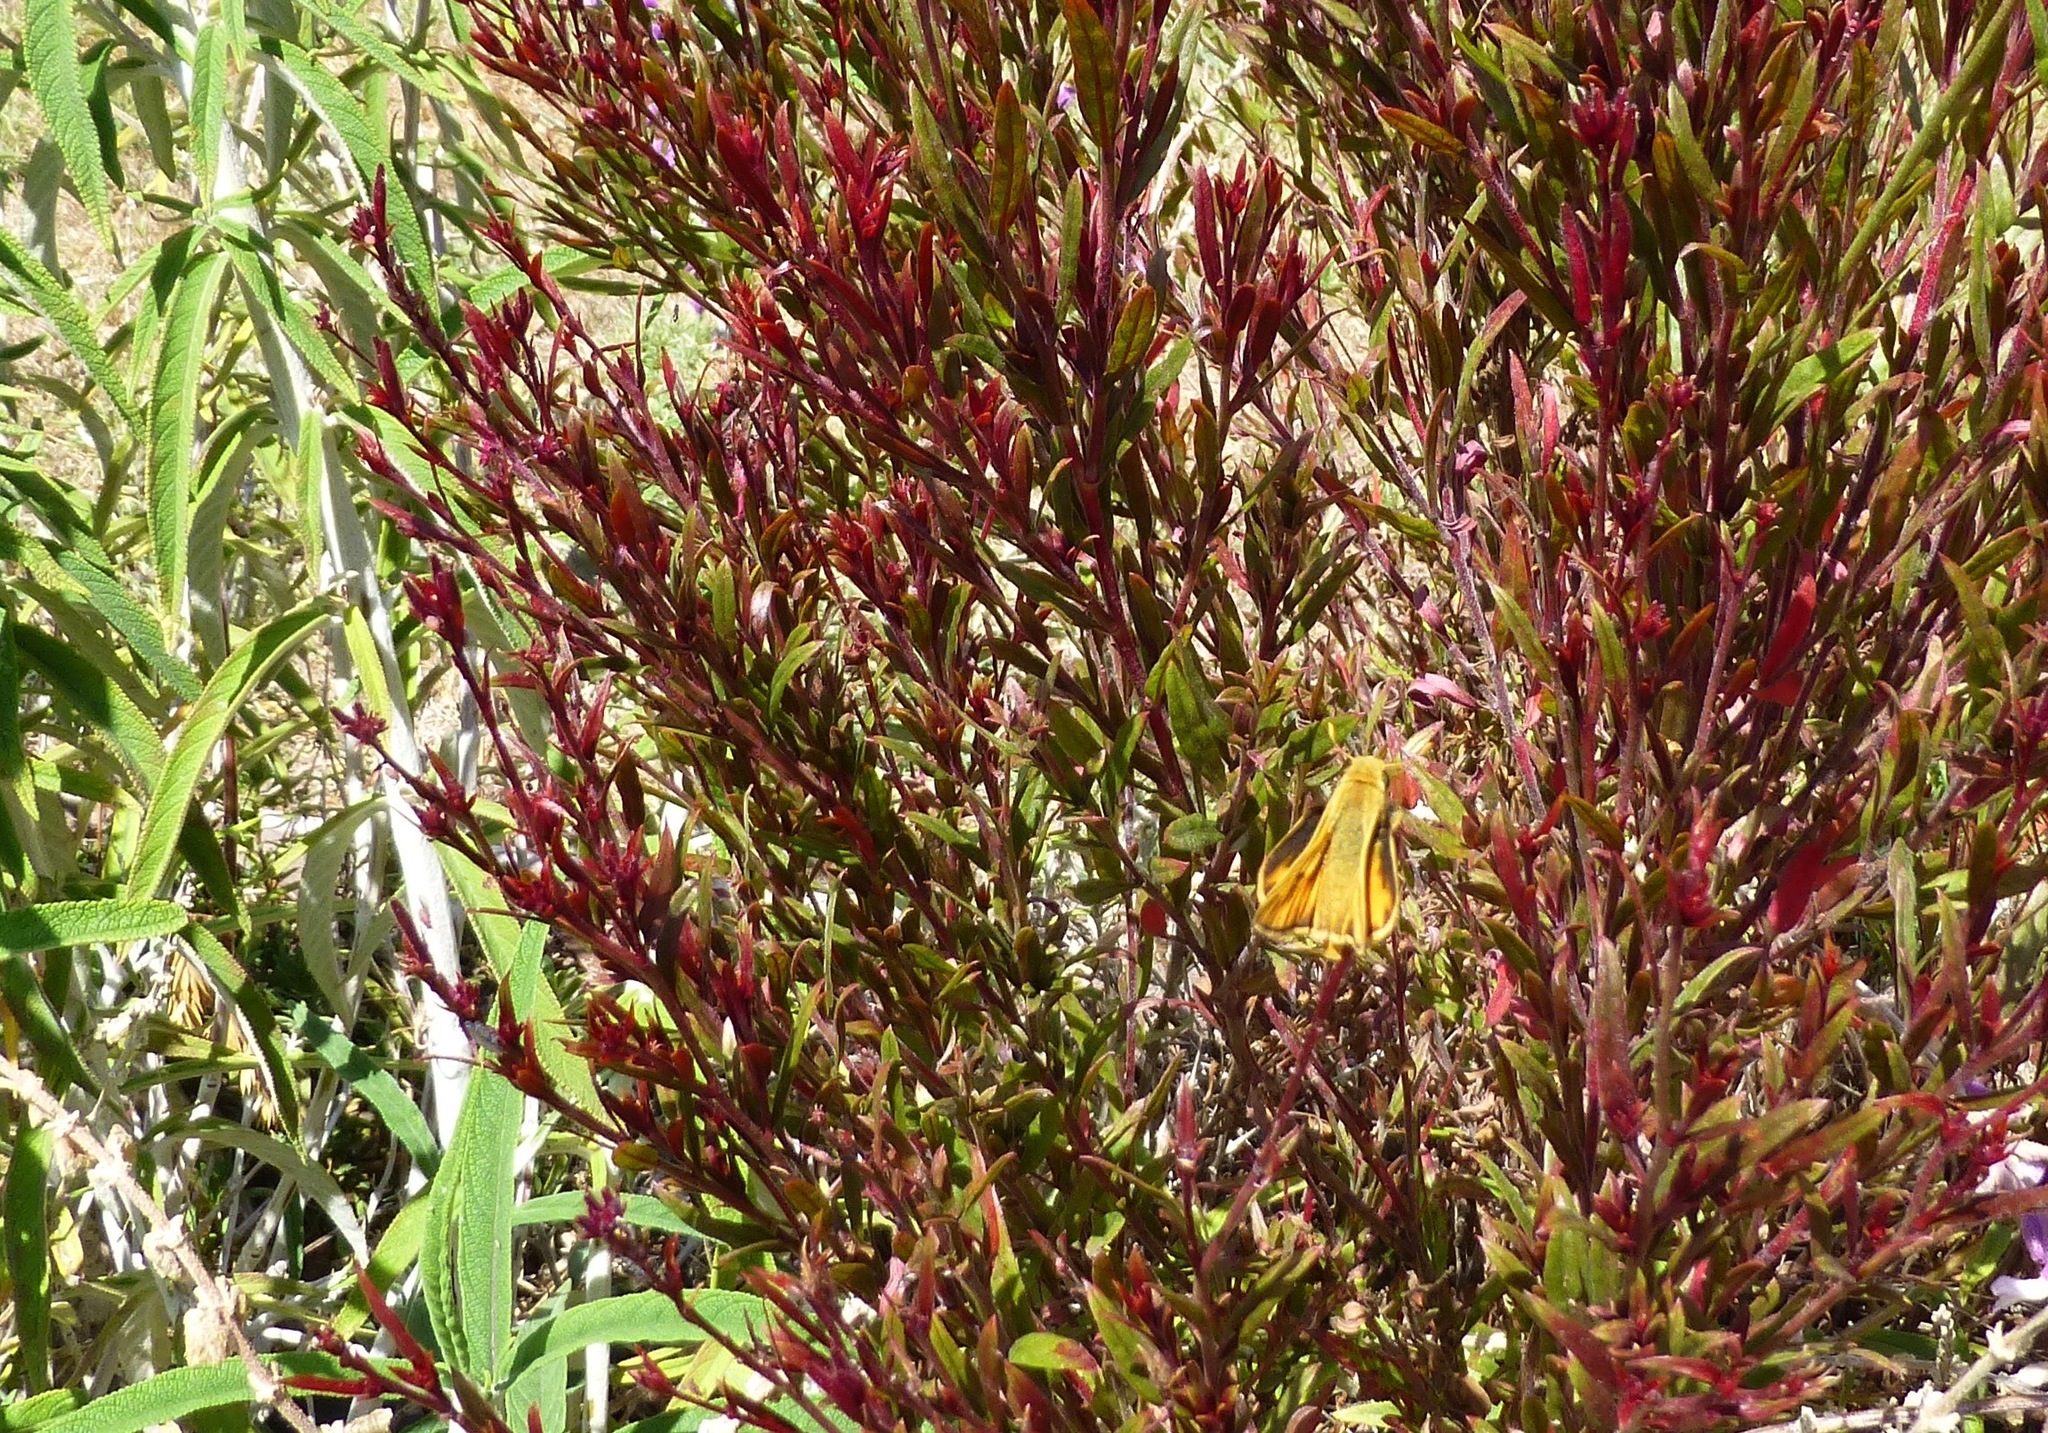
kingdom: Animalia
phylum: Arthropoda
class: Insecta
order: Lepidoptera
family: Hesperiidae
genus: Hylephila
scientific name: Hylephila phyleus
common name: Fiery skipper
